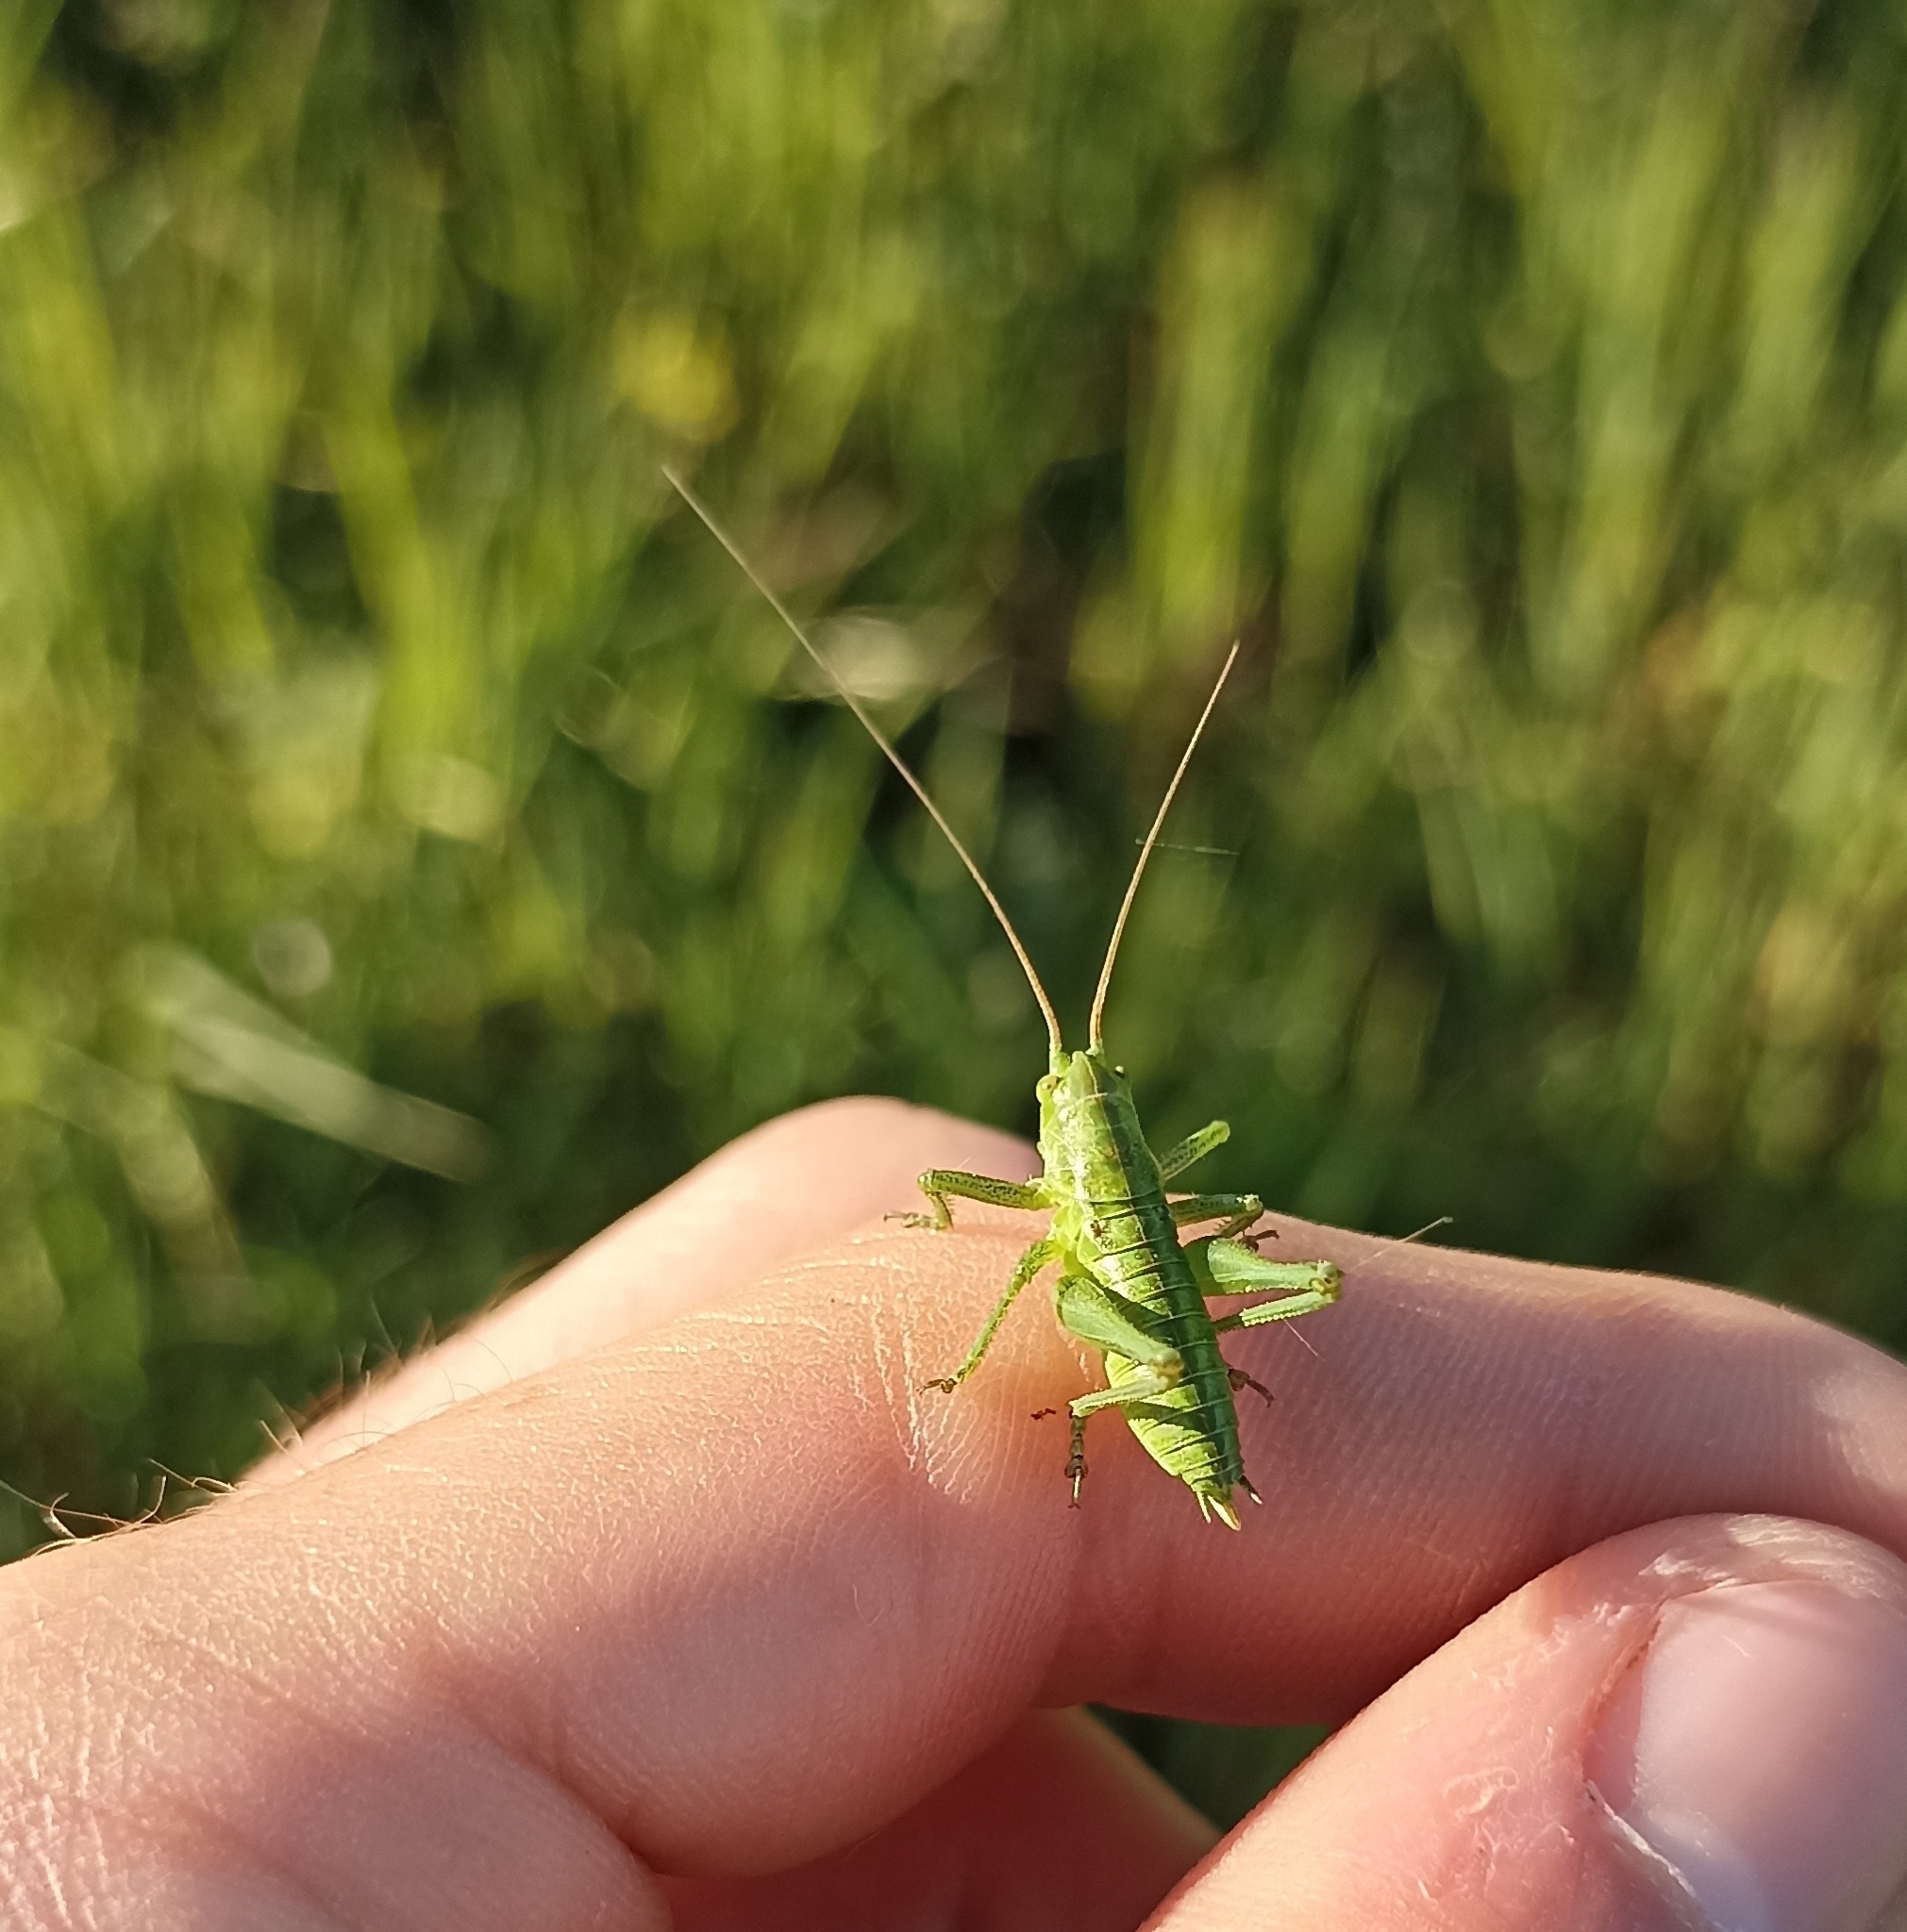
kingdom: Animalia
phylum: Arthropoda
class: Insecta
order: Orthoptera
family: Tettigoniidae
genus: Tettigonia
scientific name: Tettigonia viridissima
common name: Great green bush-cricket
